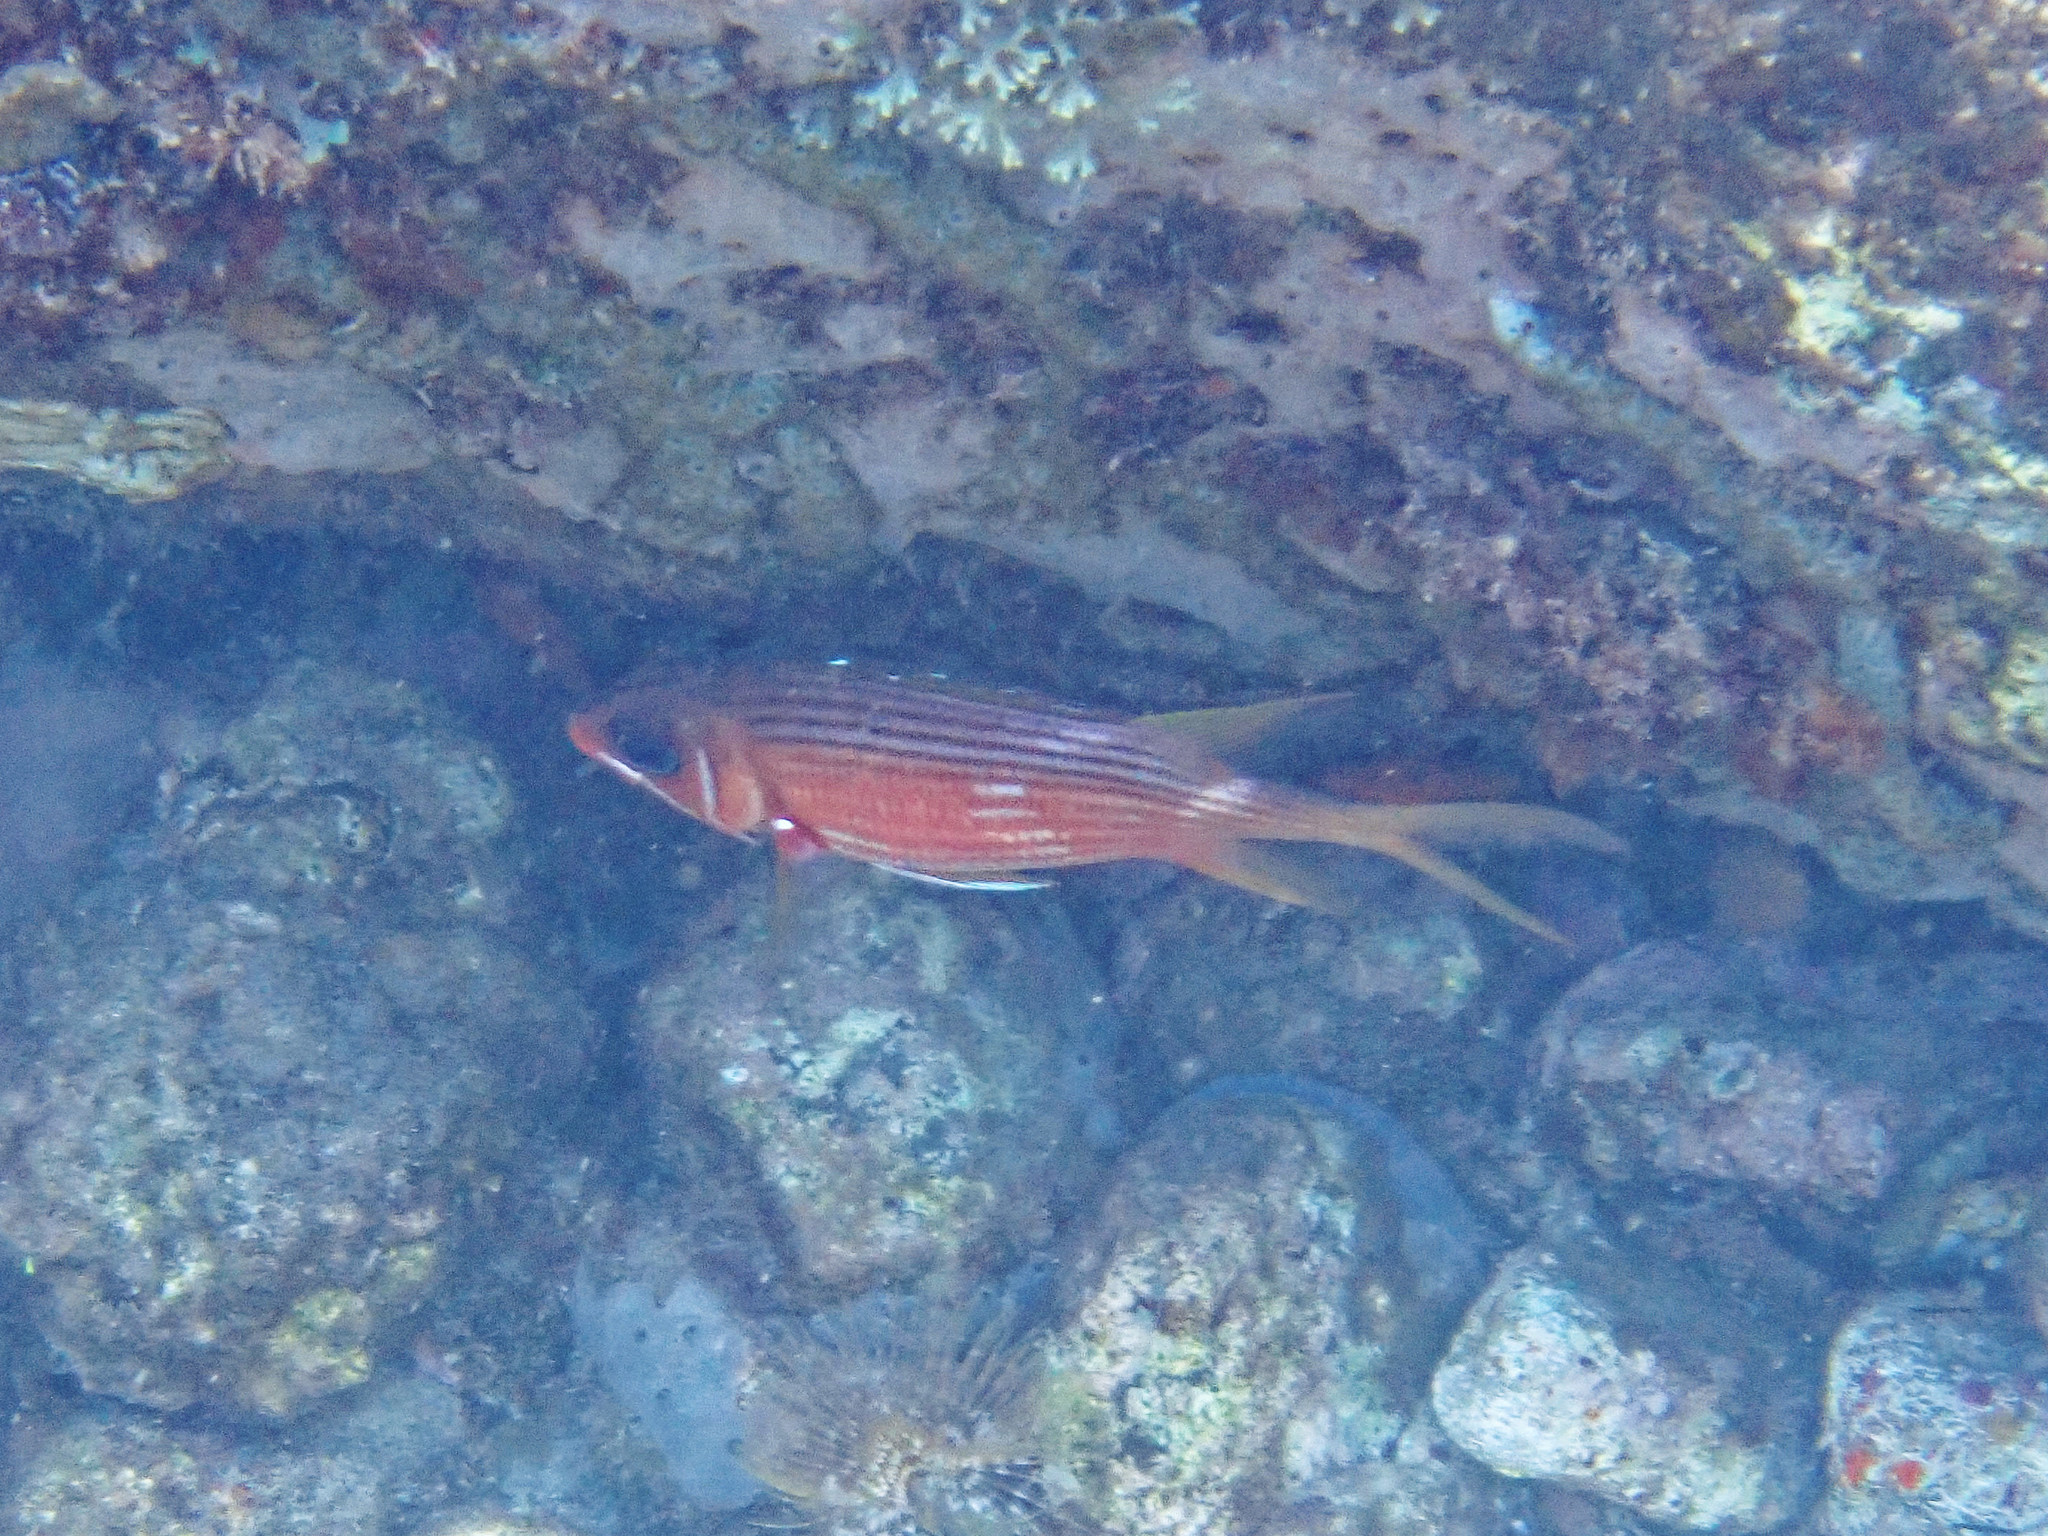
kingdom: Animalia
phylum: Chordata
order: Beryciformes
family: Holocentridae
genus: Holocentrus
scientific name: Holocentrus rufus
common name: Longspine squirrelfish
